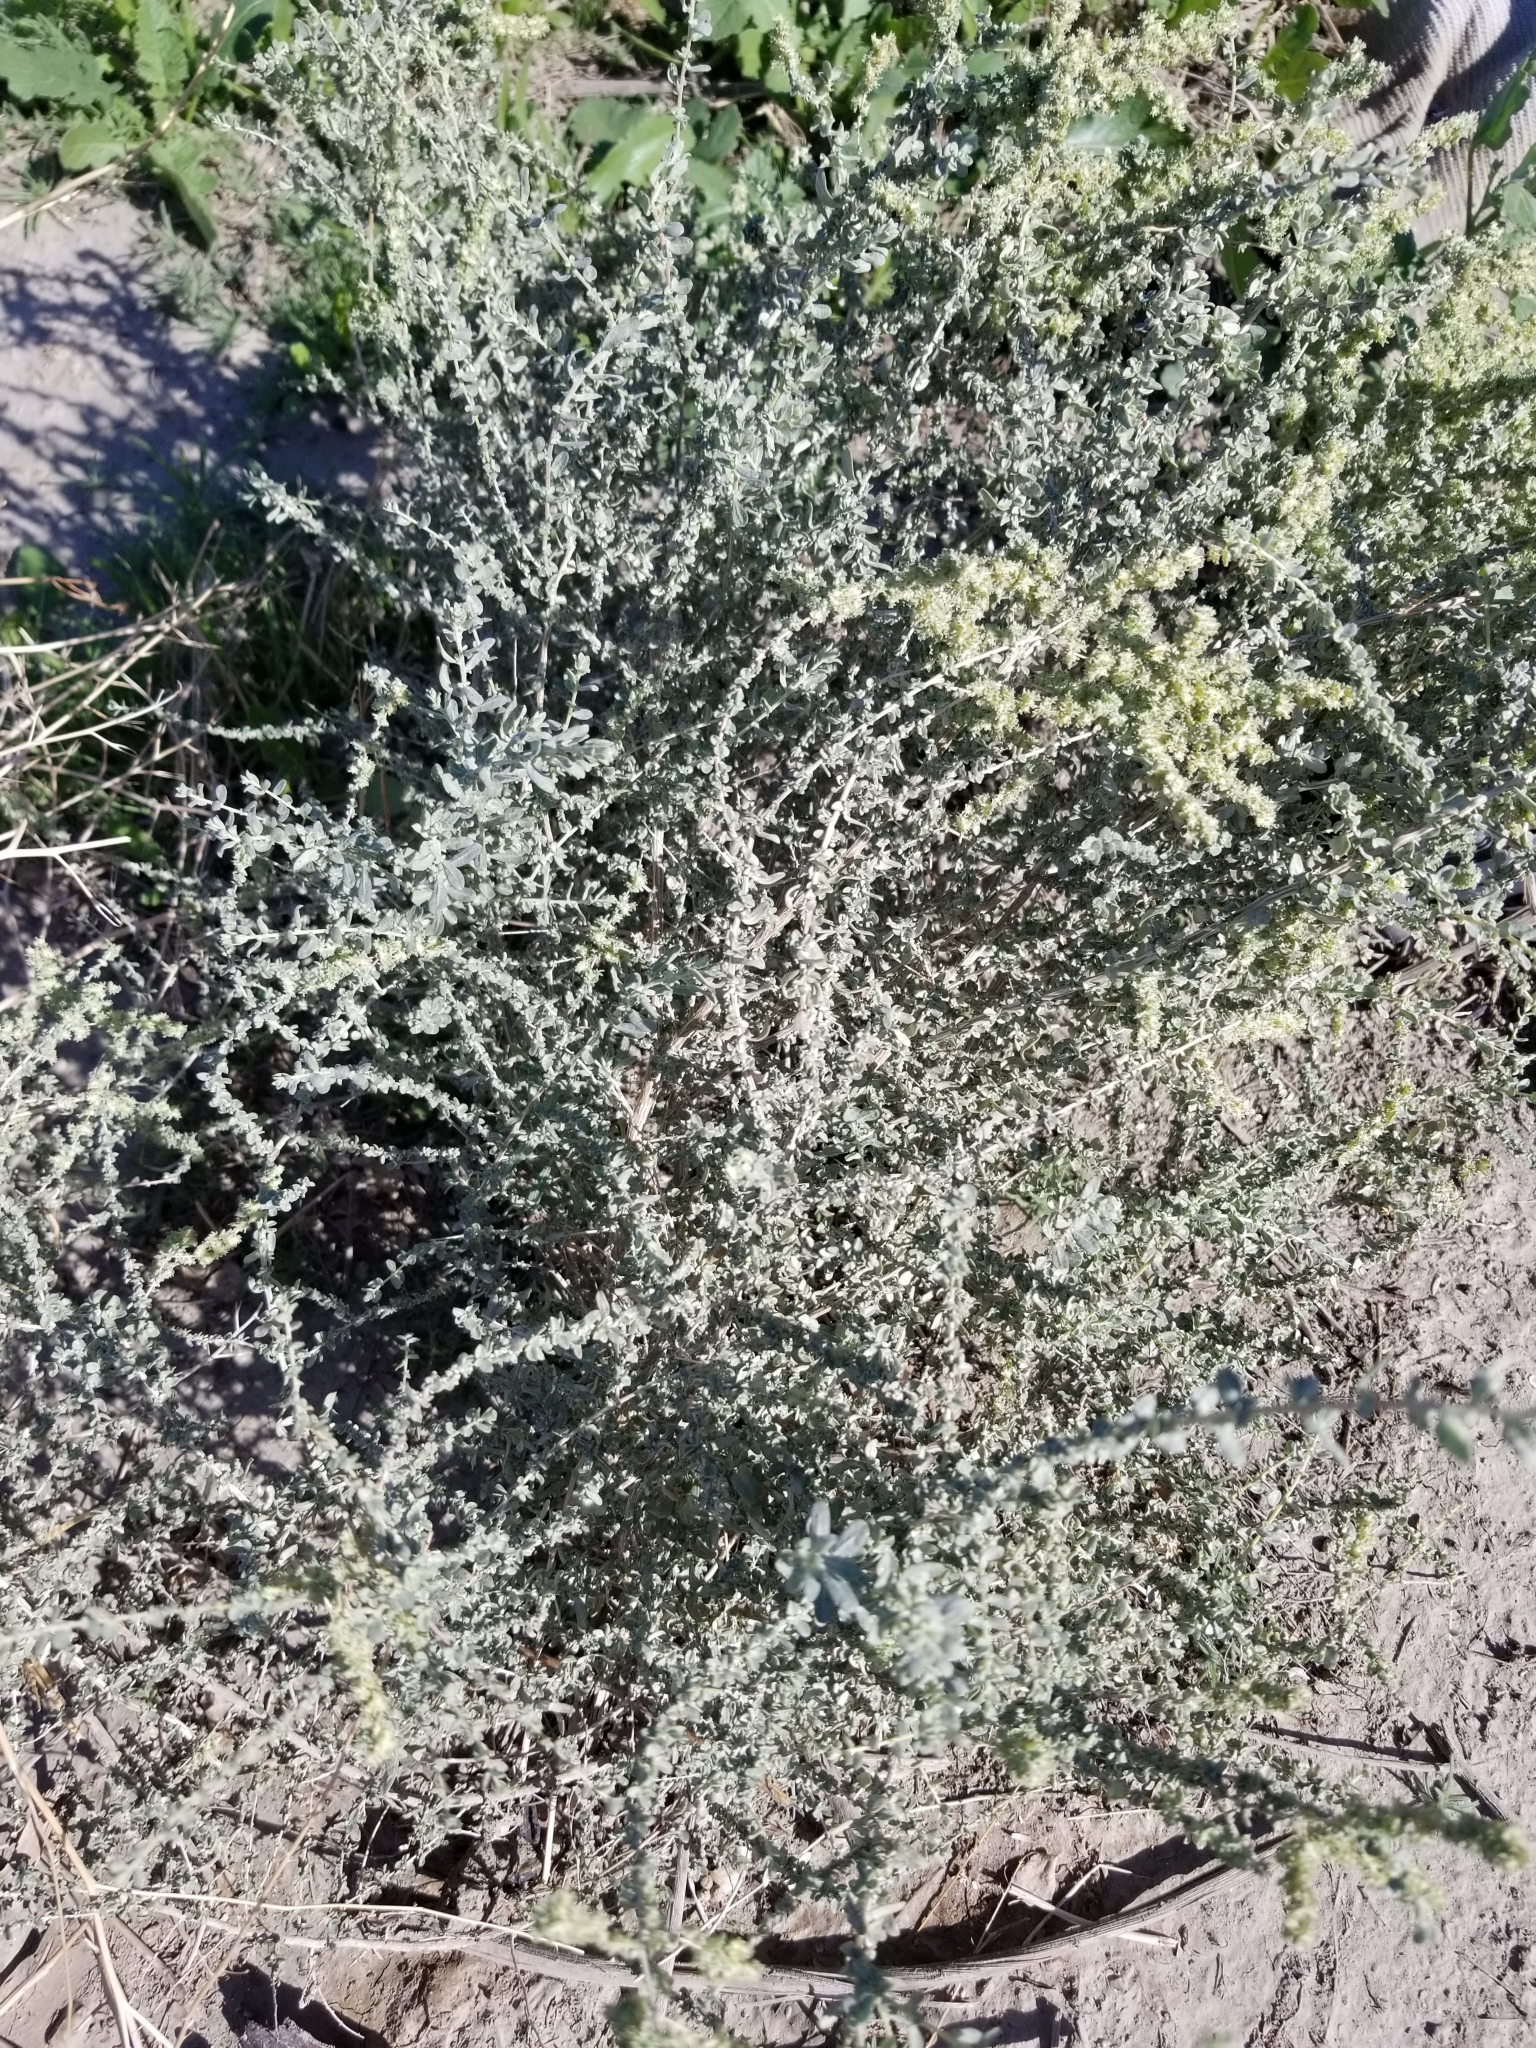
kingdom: Plantae
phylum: Tracheophyta
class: Magnoliopsida
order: Caryophyllales
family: Amaranthaceae
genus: Atriplex
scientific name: Atriplex polycarpa
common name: Desert saltbush
